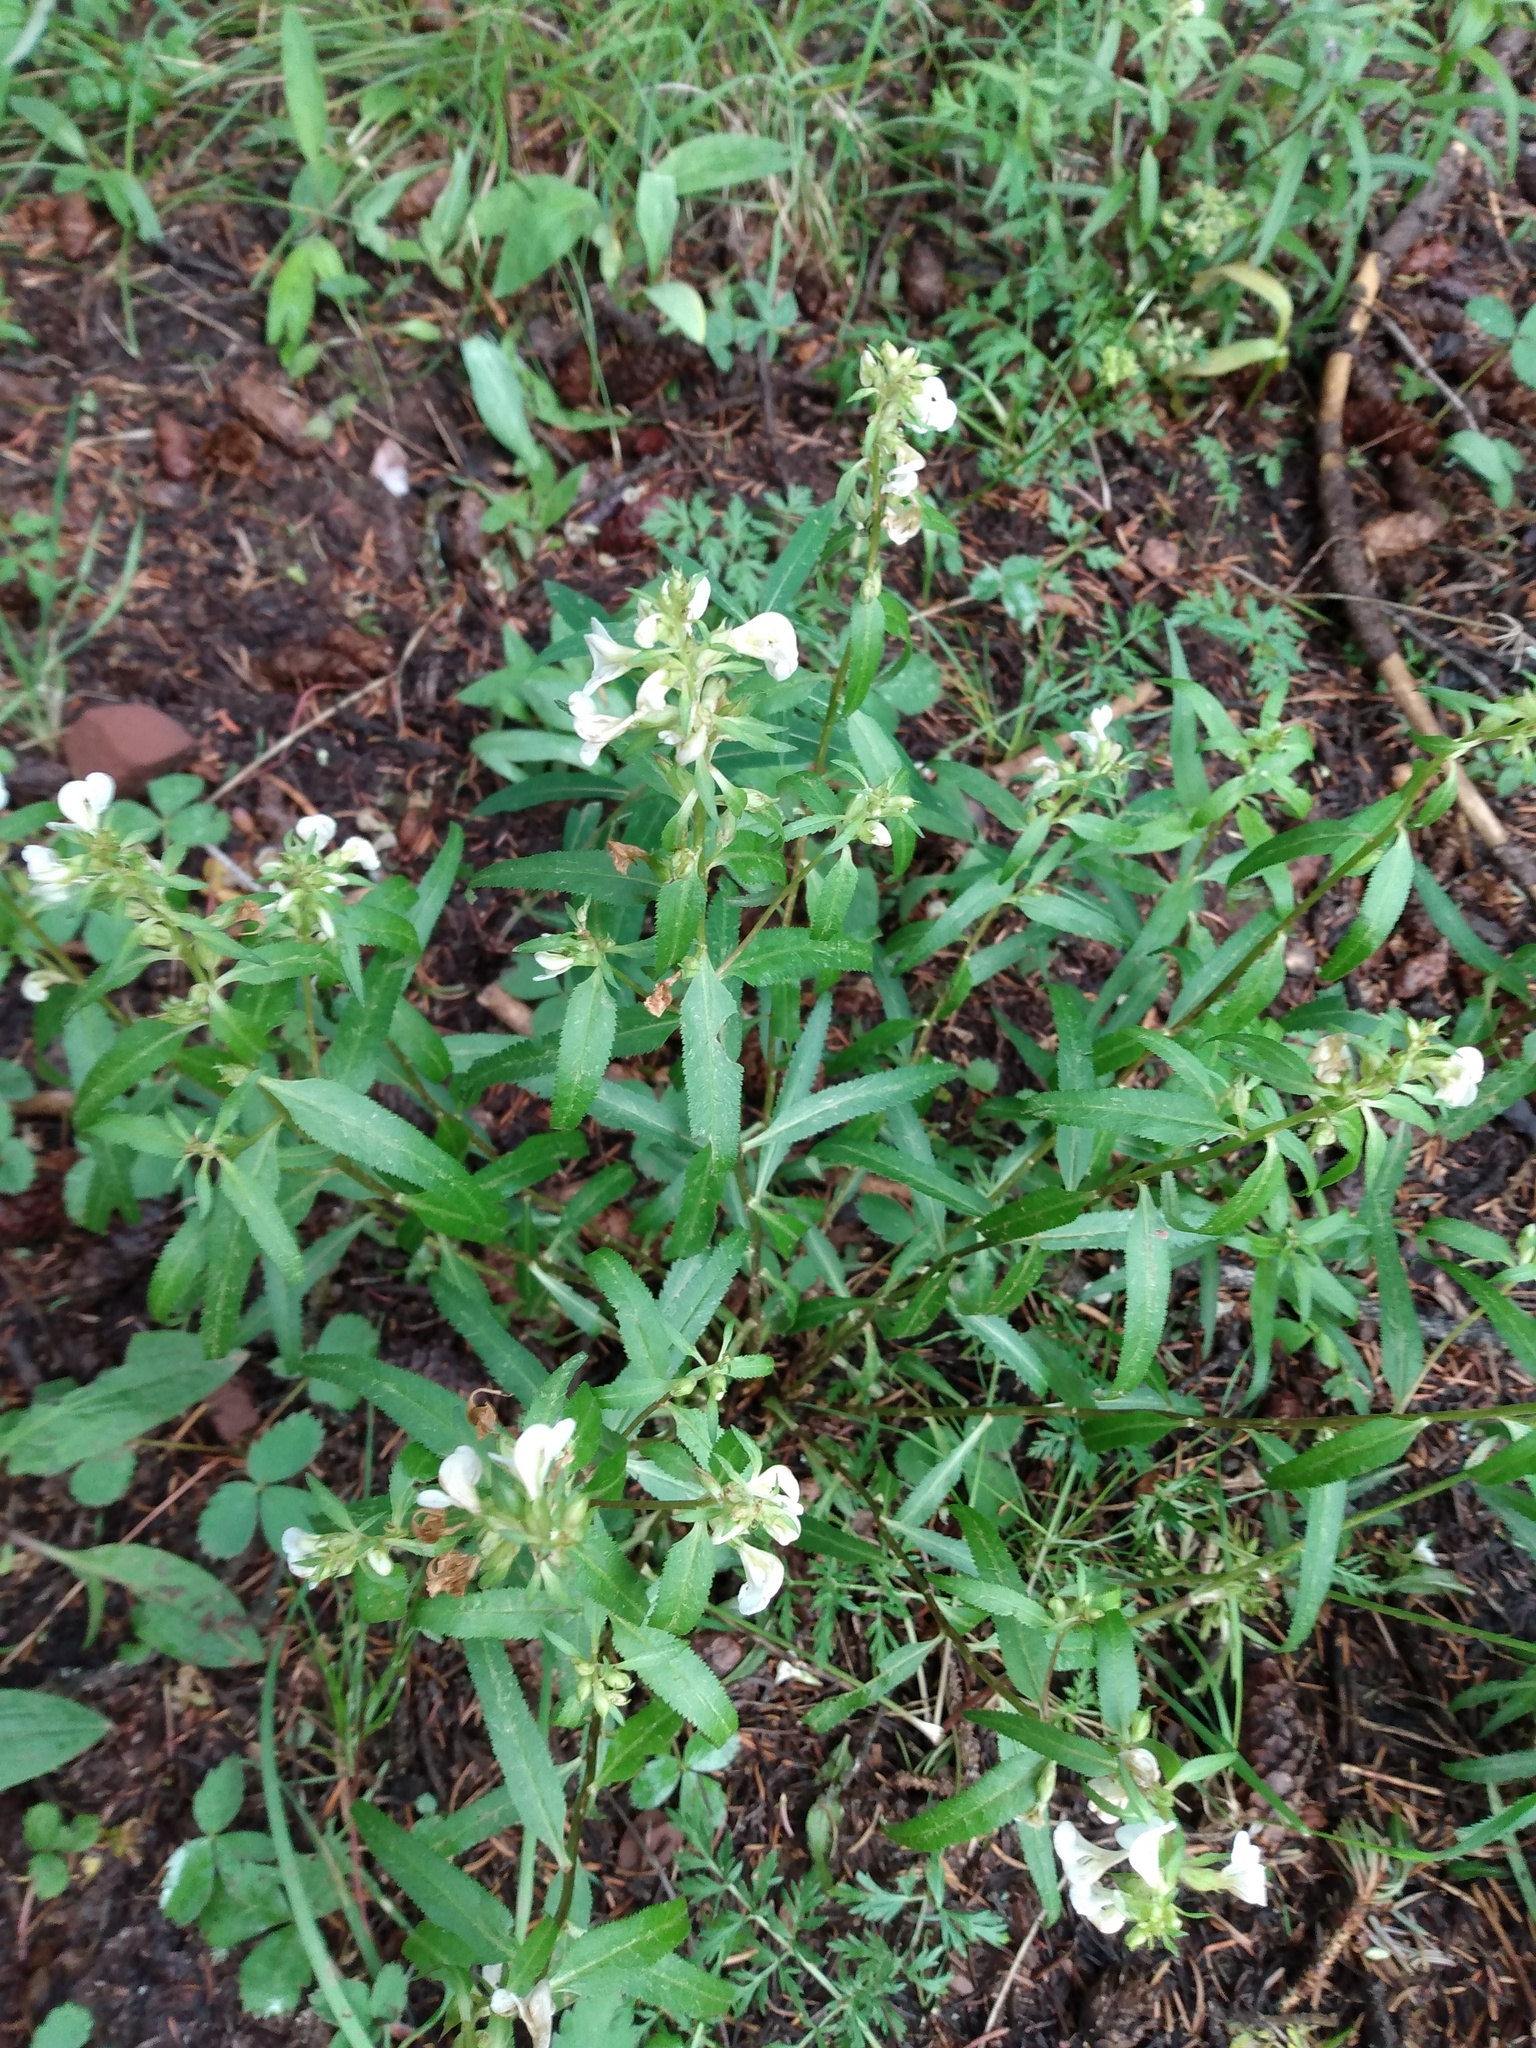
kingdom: Plantae
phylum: Tracheophyta
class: Magnoliopsida
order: Lamiales
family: Orobanchaceae
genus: Pedicularis
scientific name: Pedicularis racemosa
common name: Leafy lousewort
